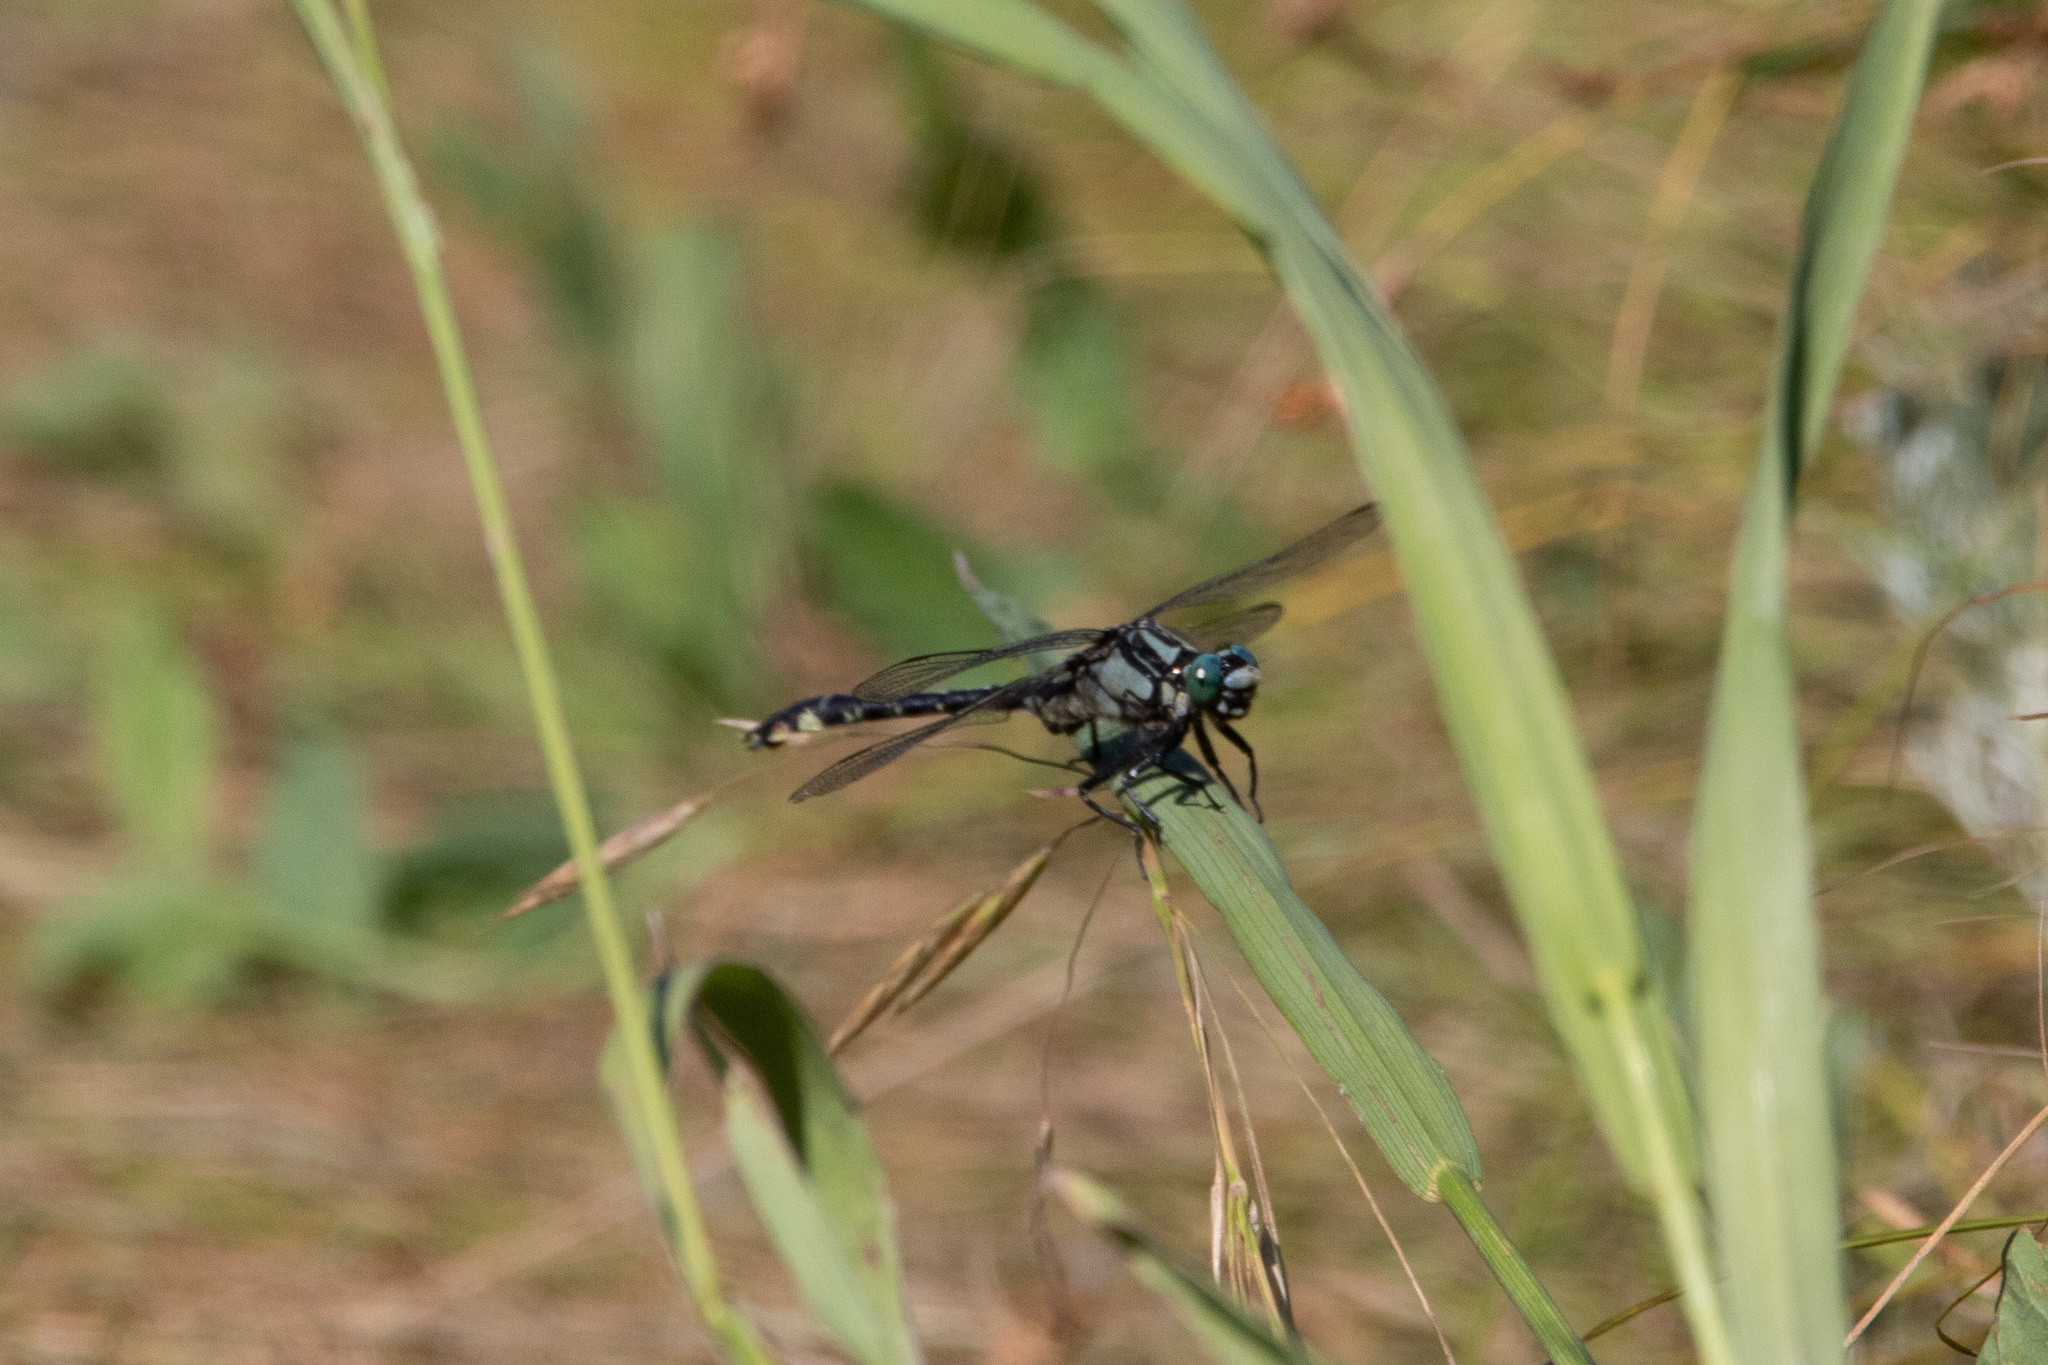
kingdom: Animalia
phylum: Arthropoda
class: Insecta
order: Odonata
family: Gomphidae
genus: Gomphus
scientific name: Gomphus vulgatissimus
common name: Club-tailed dragonfly
